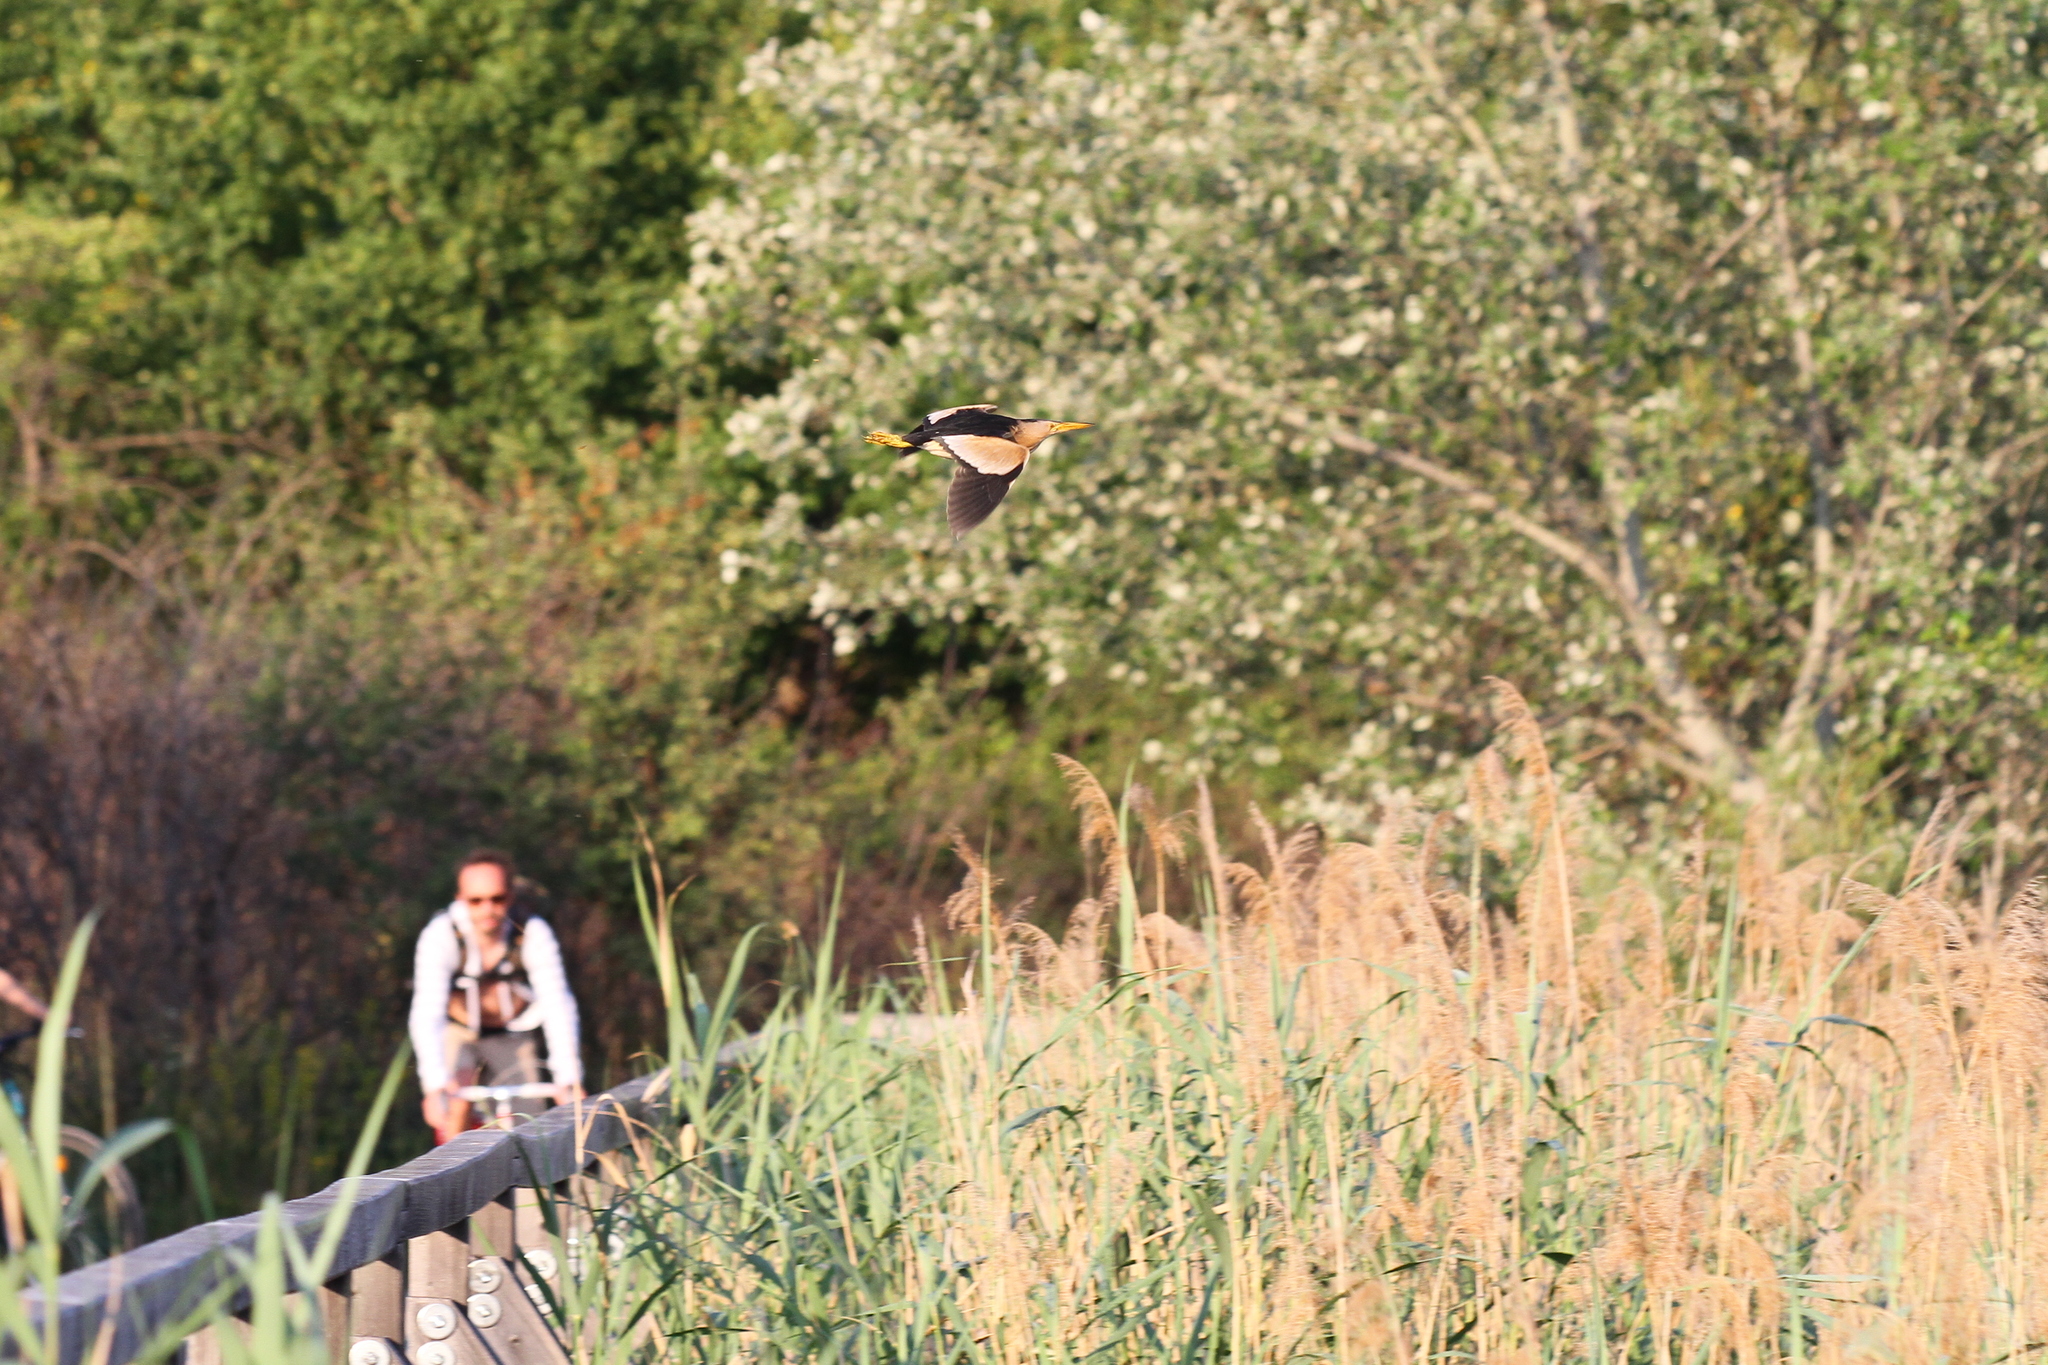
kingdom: Animalia
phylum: Chordata
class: Aves
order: Pelecaniformes
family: Ardeidae
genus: Ixobrychus
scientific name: Ixobrychus minutus
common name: Little bittern
